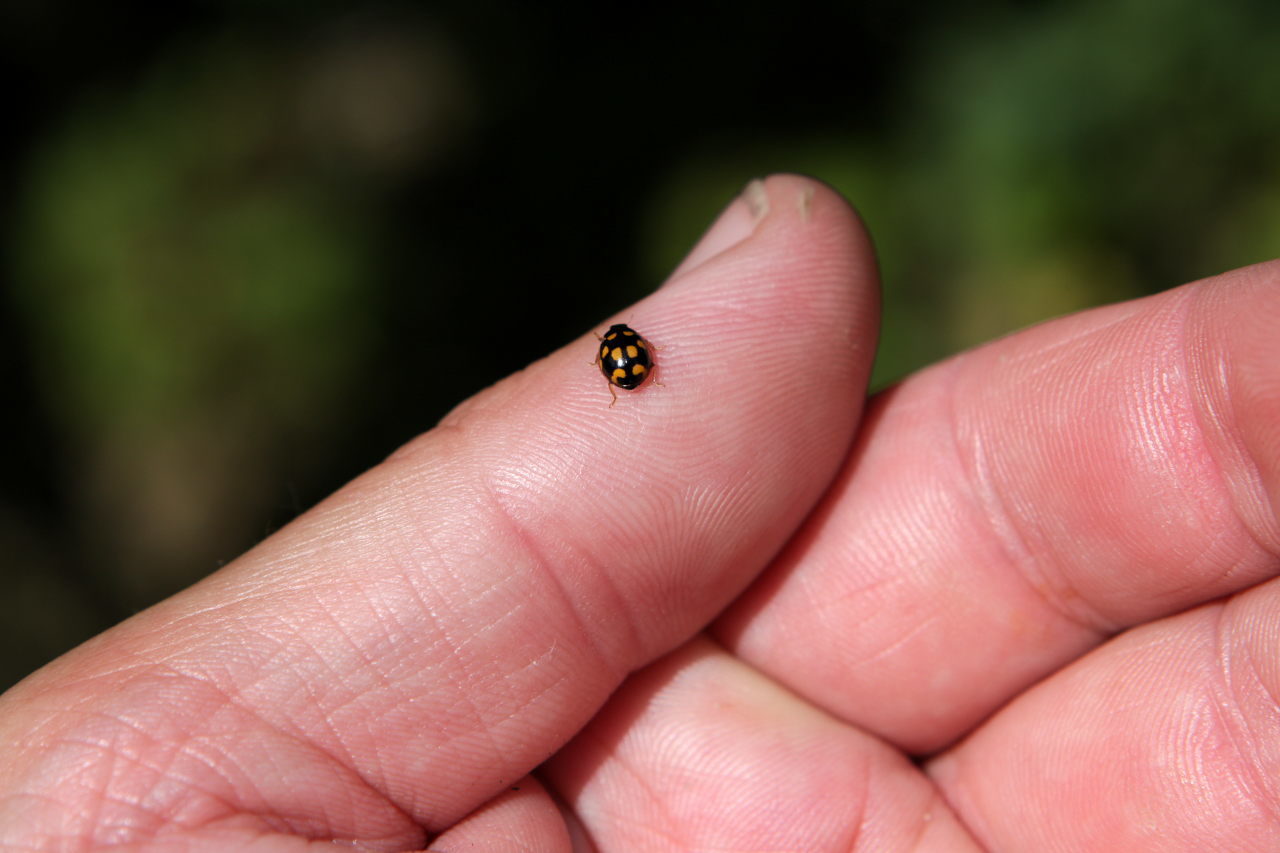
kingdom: Animalia
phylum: Arthropoda
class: Insecta
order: Coleoptera
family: Coccinellidae
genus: Propylaea
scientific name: Propylaea quatuordecimpunctata
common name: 14-spotted ladybird beetle
